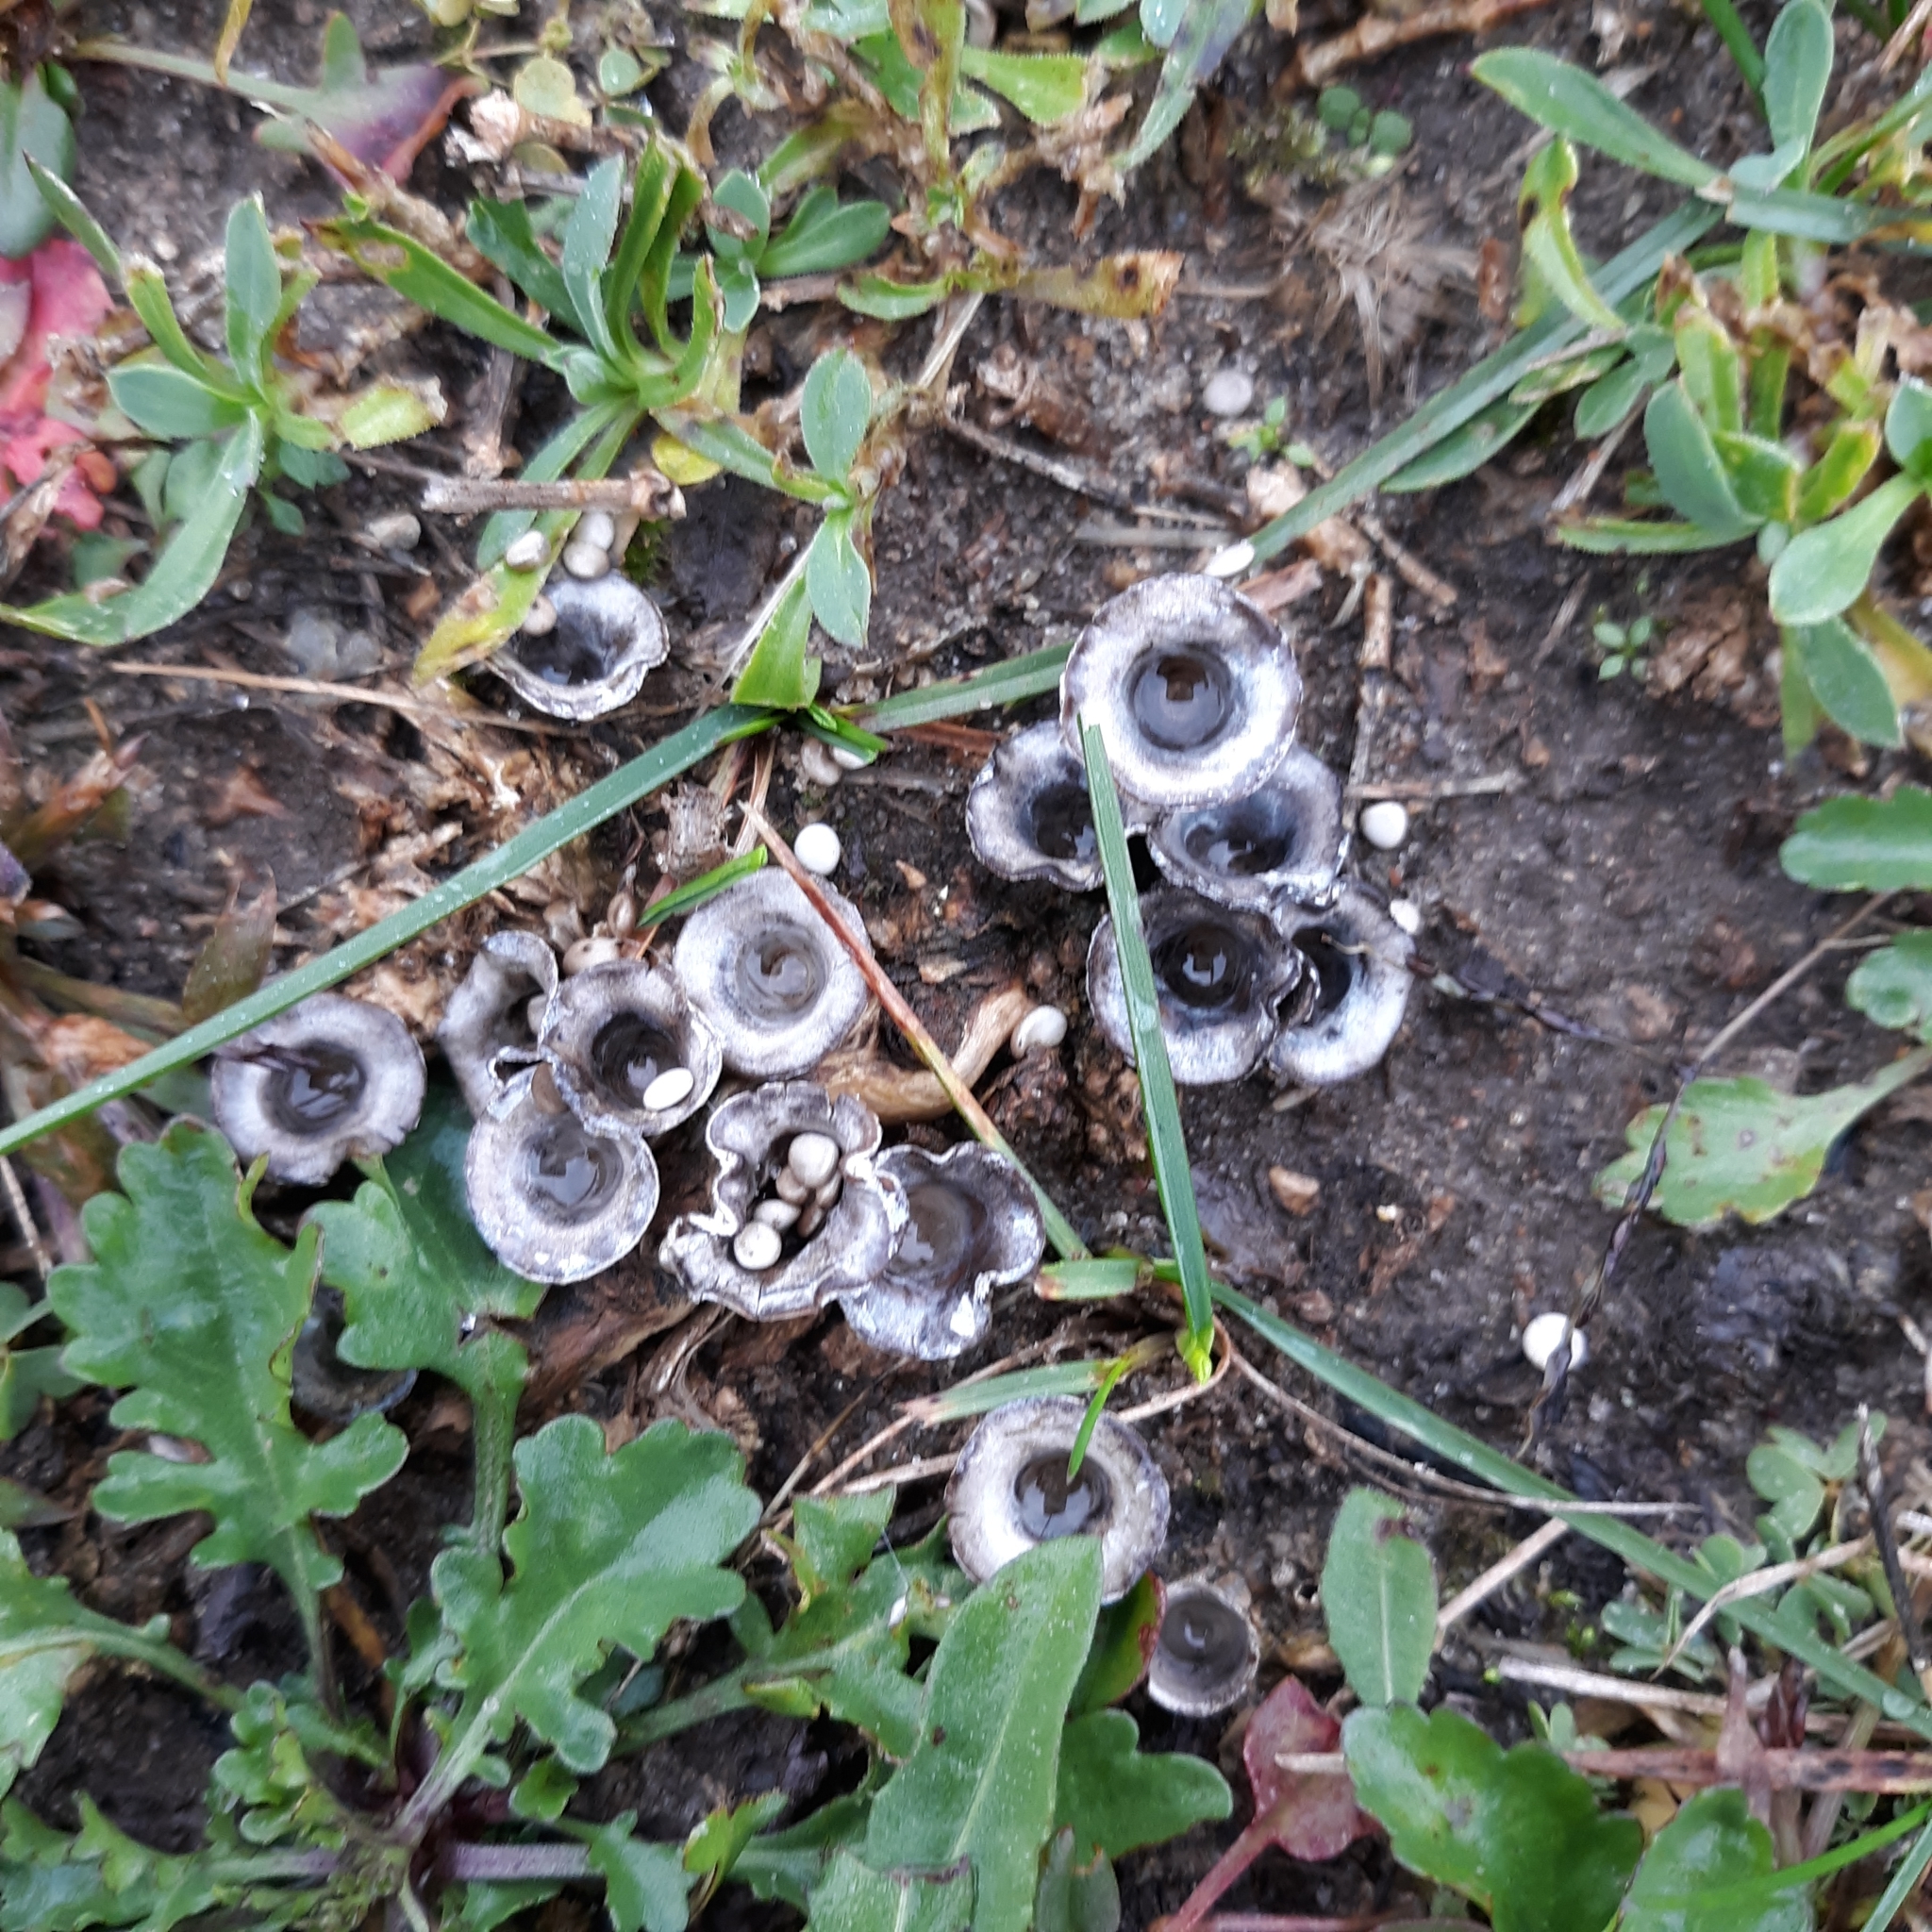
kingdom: Fungi
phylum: Basidiomycota
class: Agaricomycetes
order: Agaricales
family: Agaricaceae
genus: Cyathus
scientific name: Cyathus olla
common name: Field bird's nest
